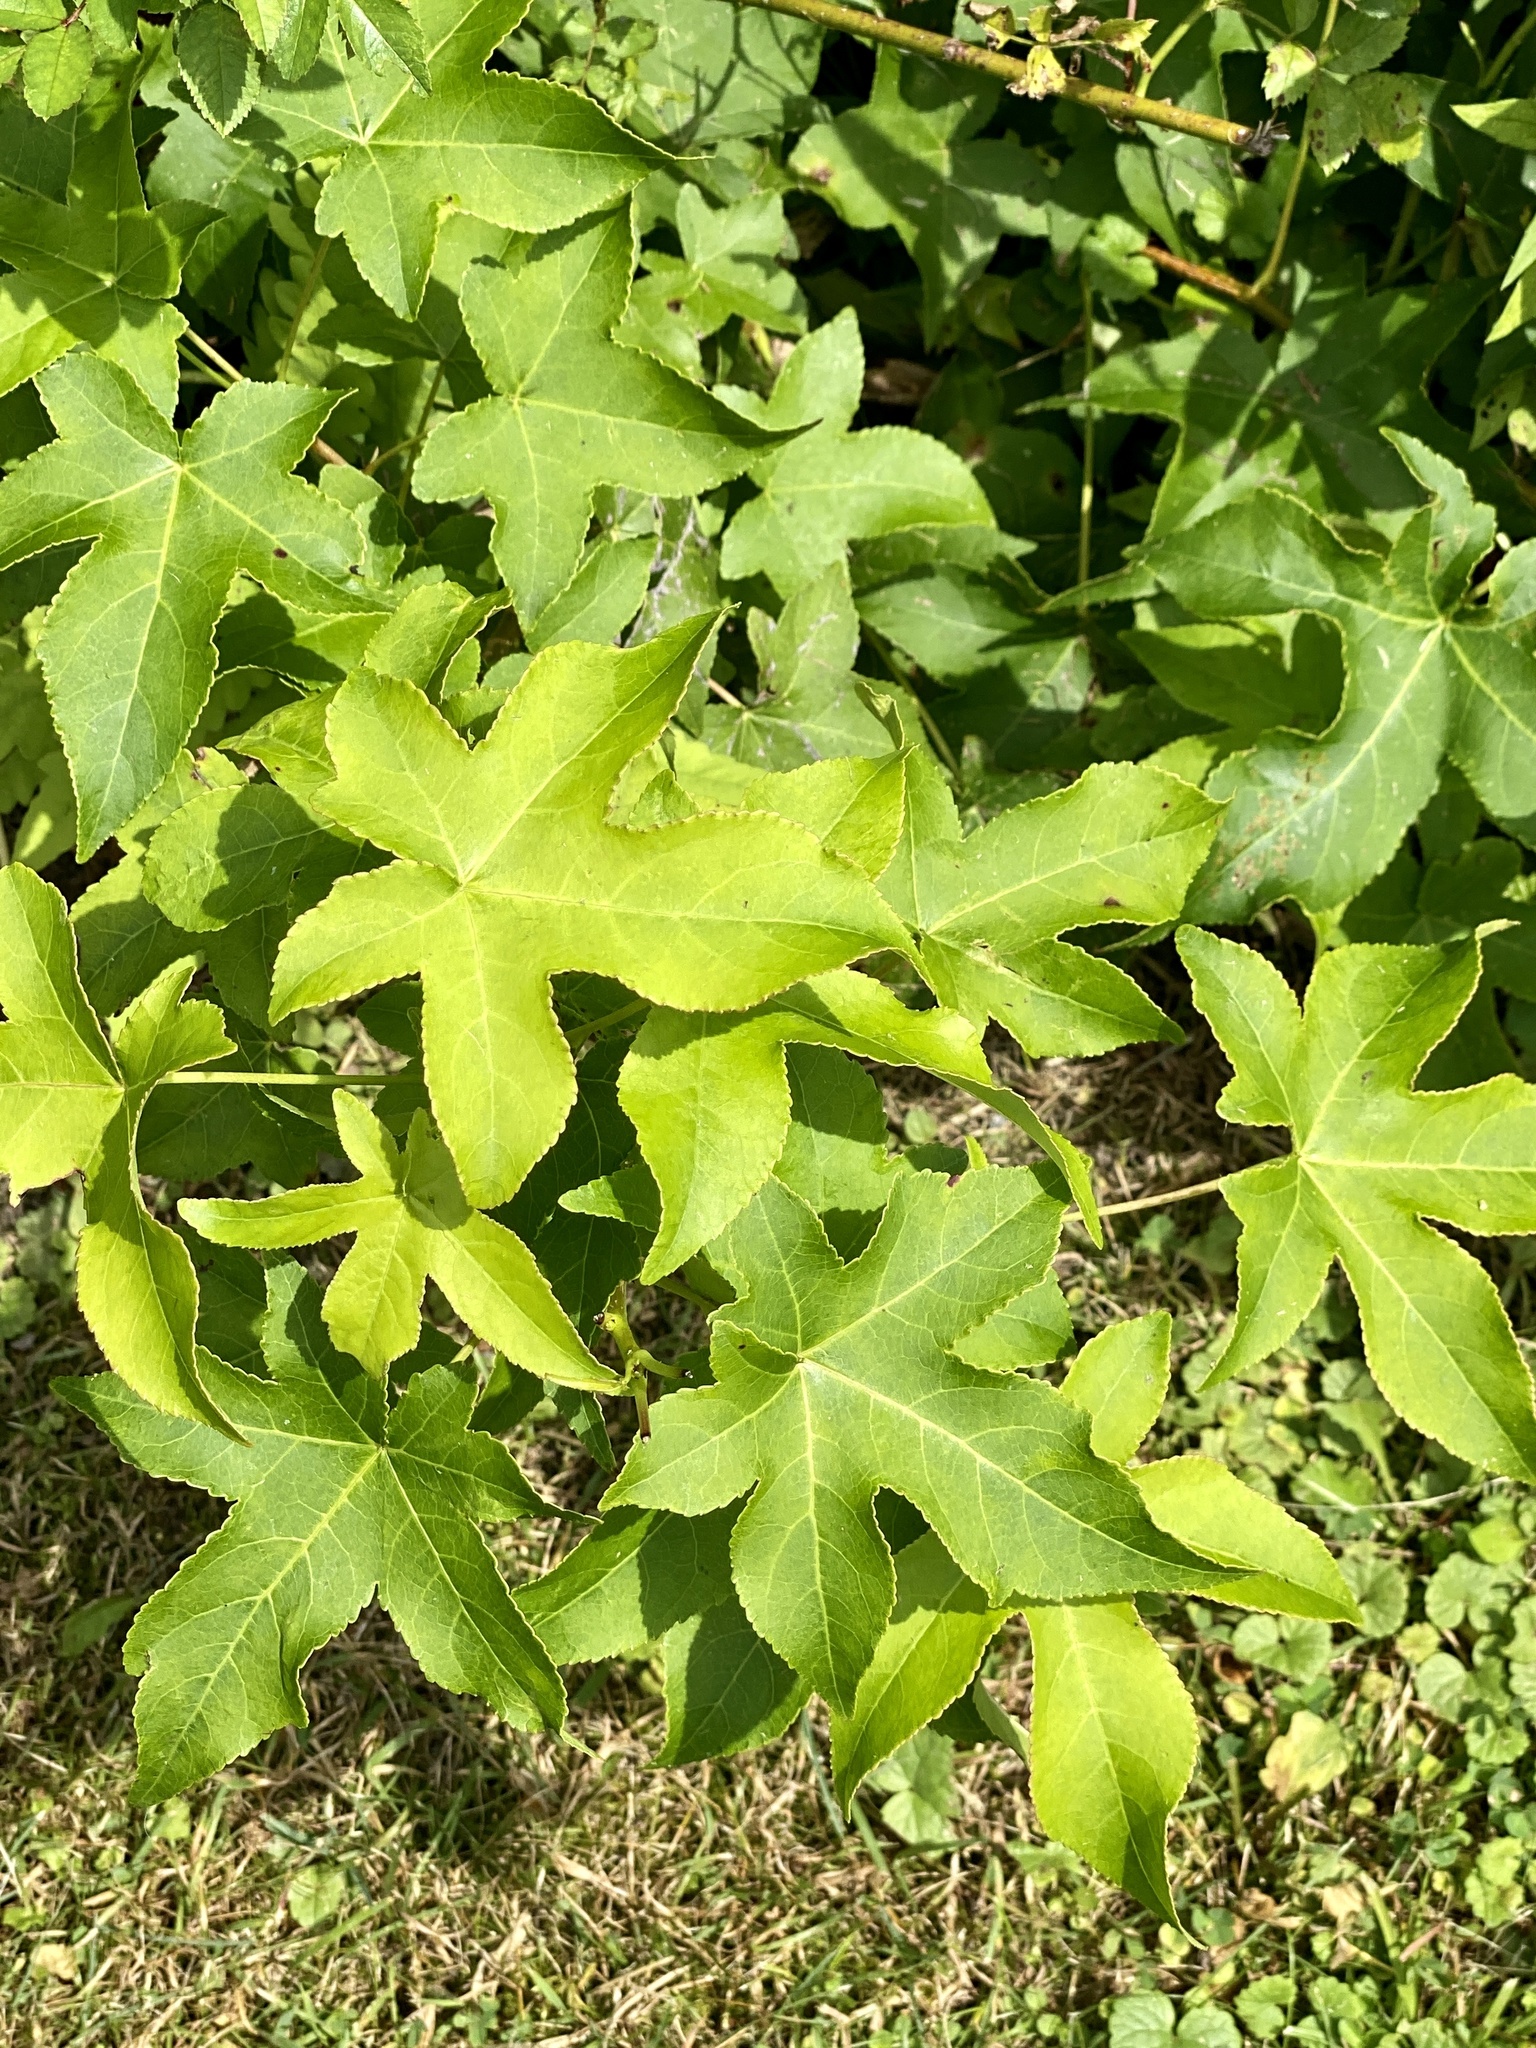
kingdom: Plantae
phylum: Tracheophyta
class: Magnoliopsida
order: Saxifragales
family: Altingiaceae
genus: Liquidambar
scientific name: Liquidambar styraciflua
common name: Sweet gum
